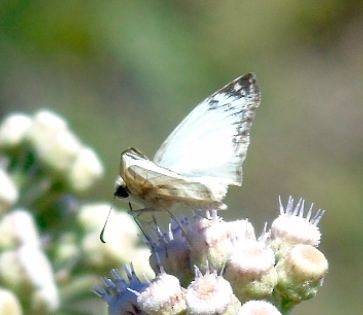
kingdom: Animalia
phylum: Arthropoda
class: Insecta
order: Lepidoptera
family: Hesperiidae
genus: Heliopetes
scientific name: Heliopetes laviana
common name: Laviana white-skipper
